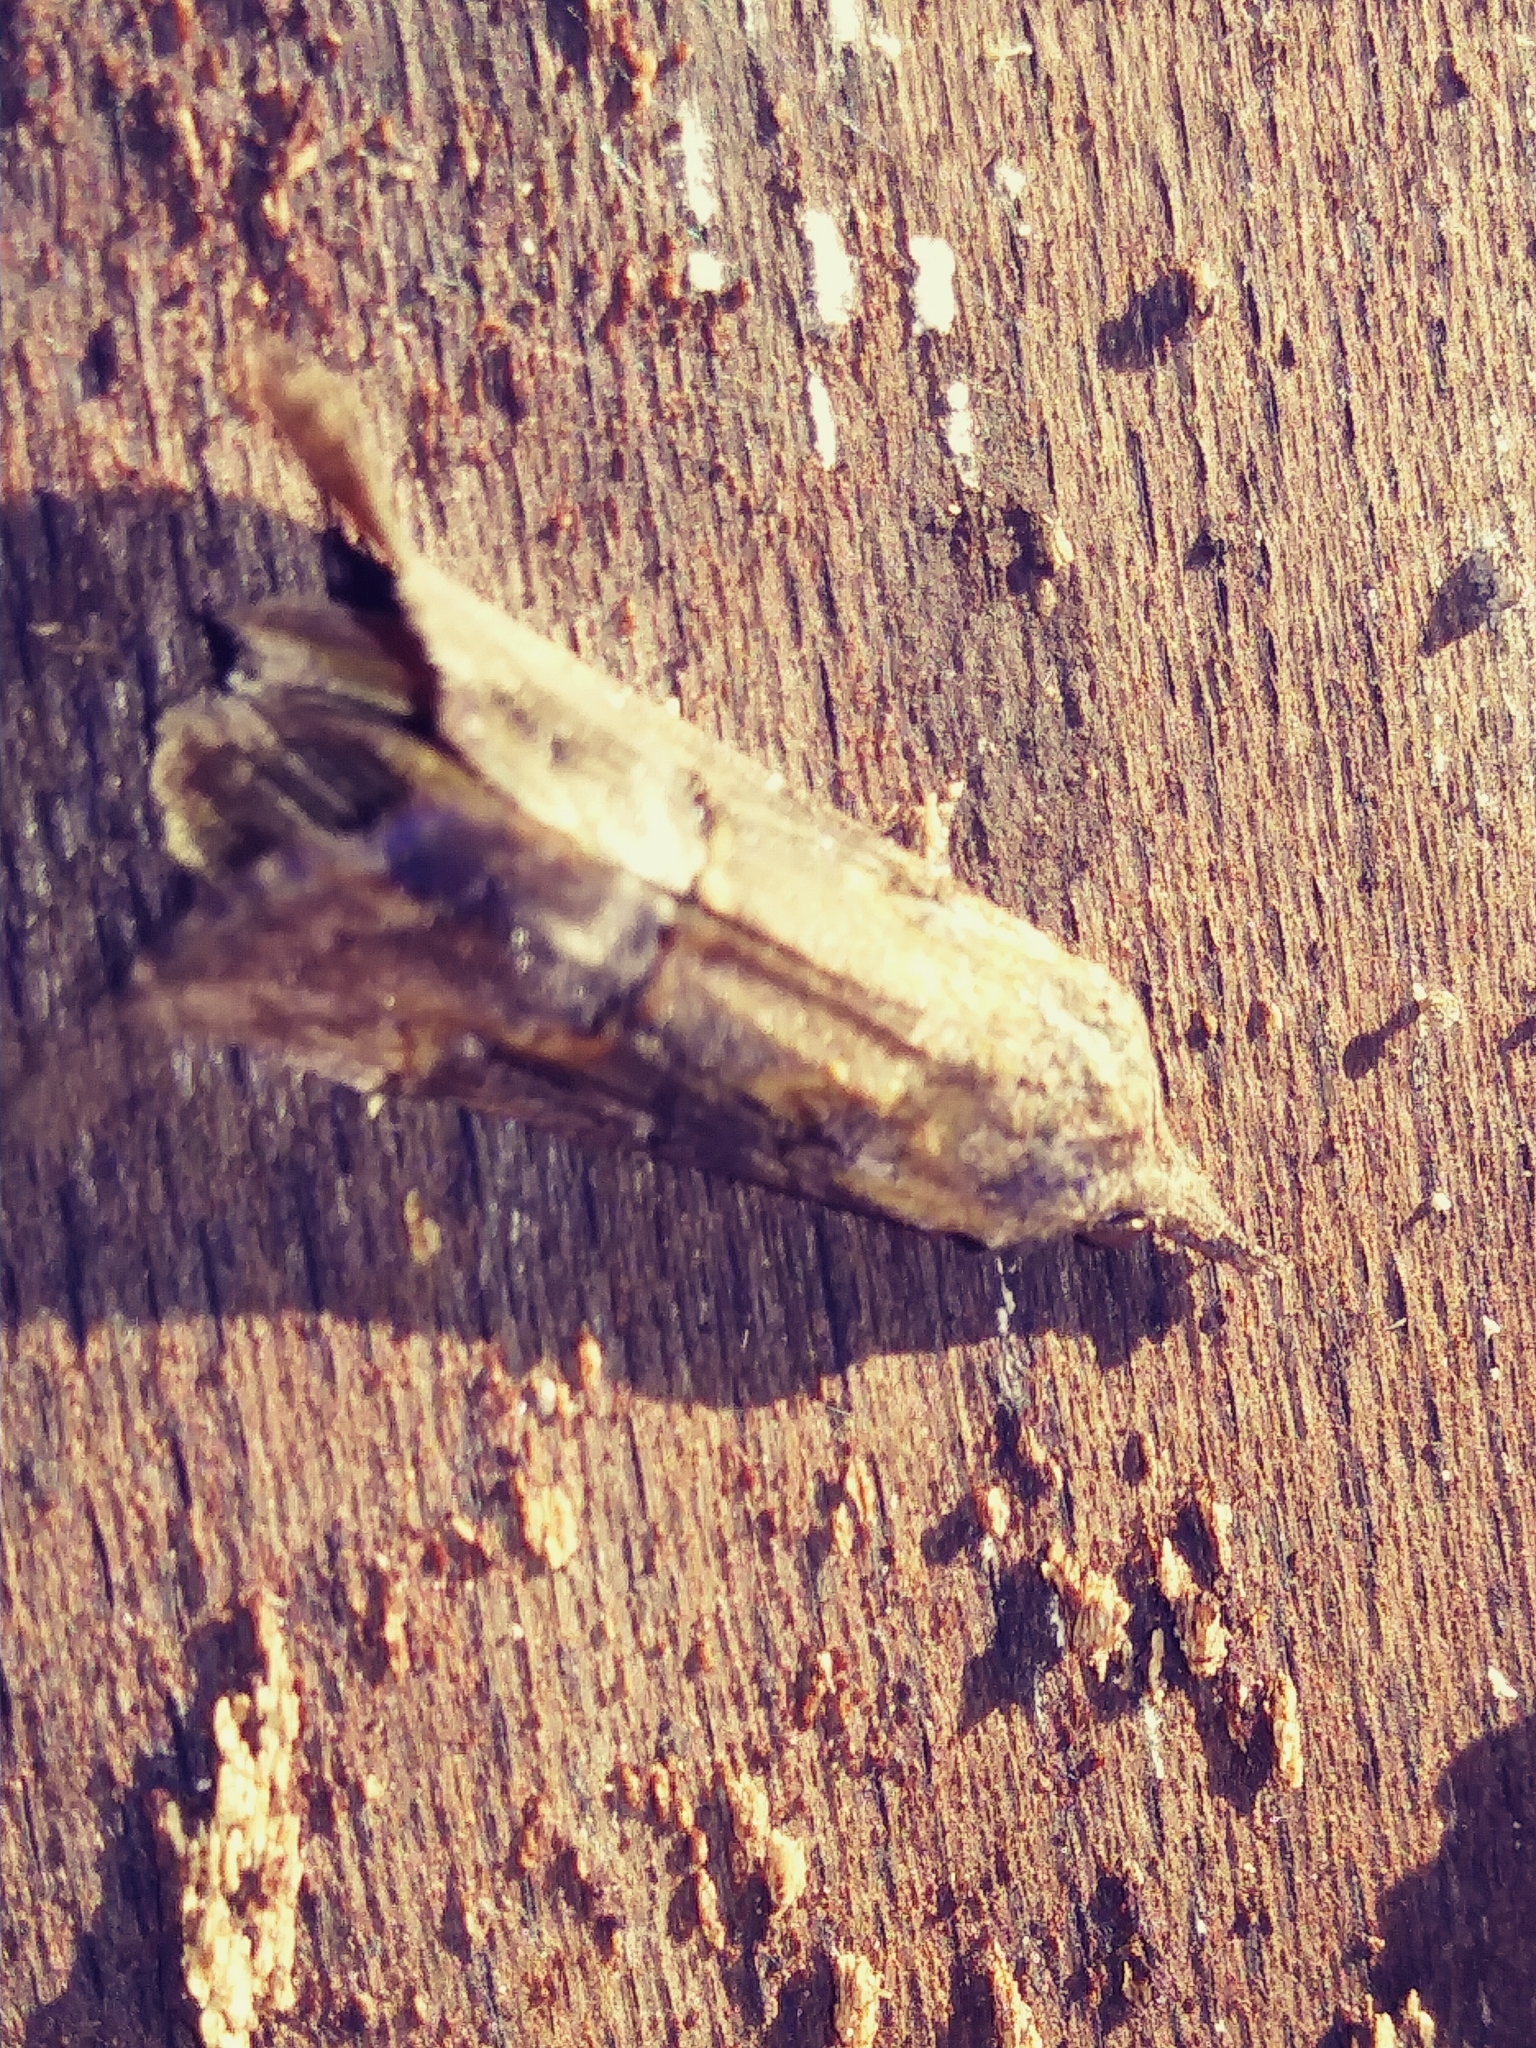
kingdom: Animalia
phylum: Arthropoda
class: Insecta
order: Lepidoptera
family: Erebidae
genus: Hypena
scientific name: Hypena scabra
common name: Green cloverworm
